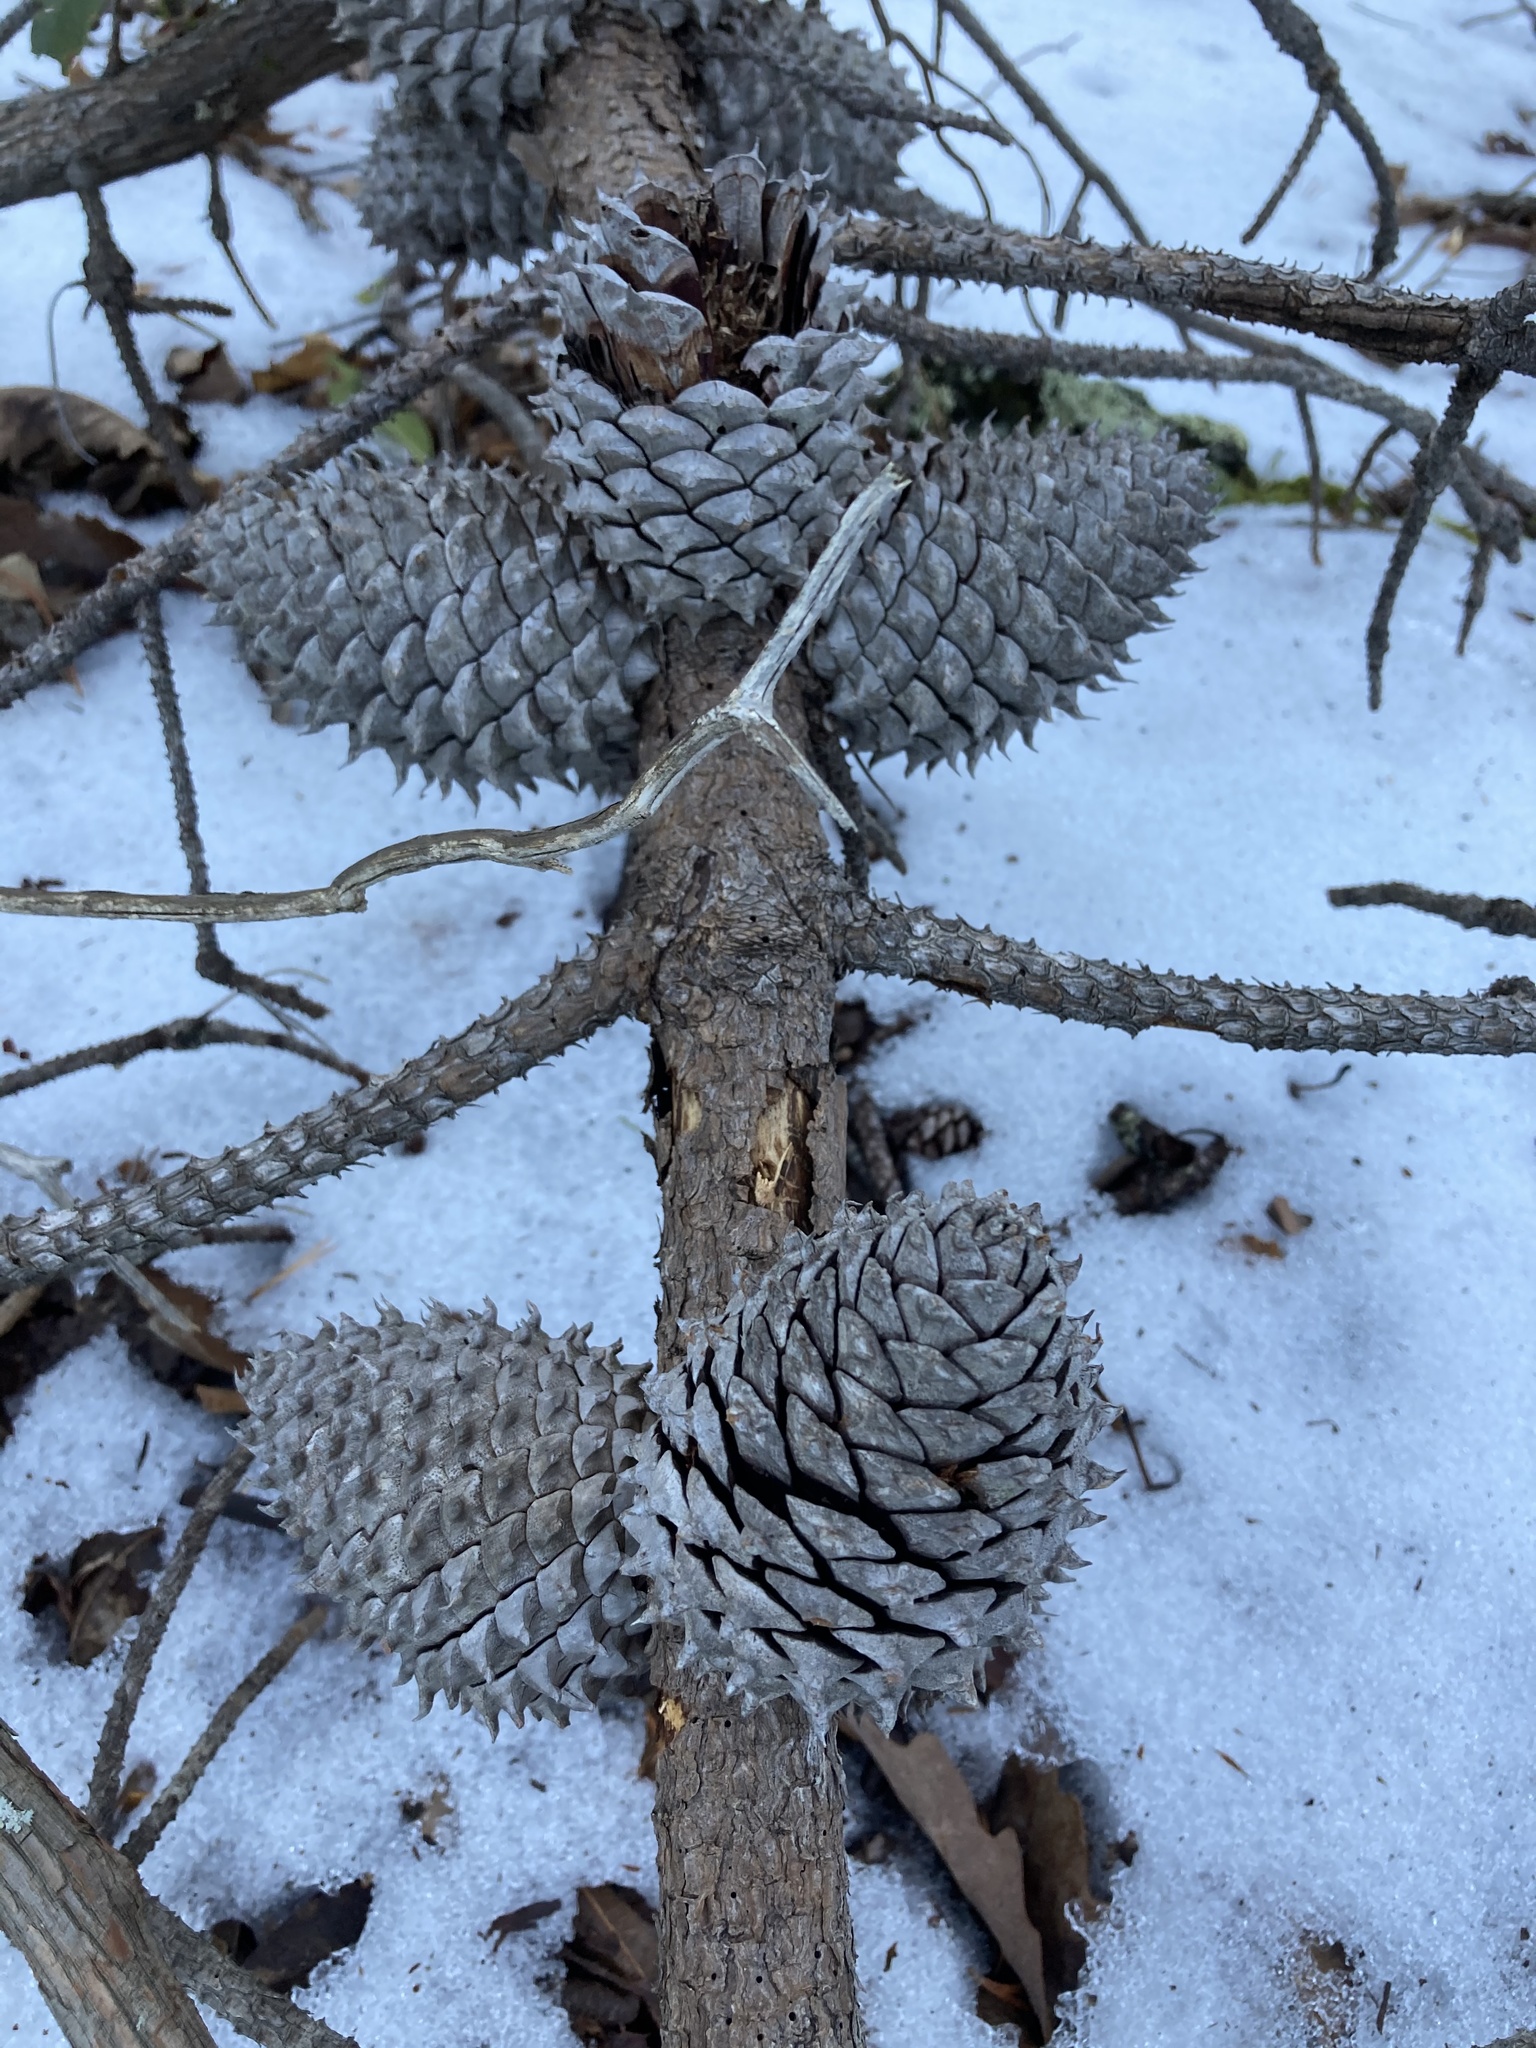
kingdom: Plantae
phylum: Tracheophyta
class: Pinopsida
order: Pinales
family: Pinaceae
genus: Pinus
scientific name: Pinus pungens
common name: Hickory pine
